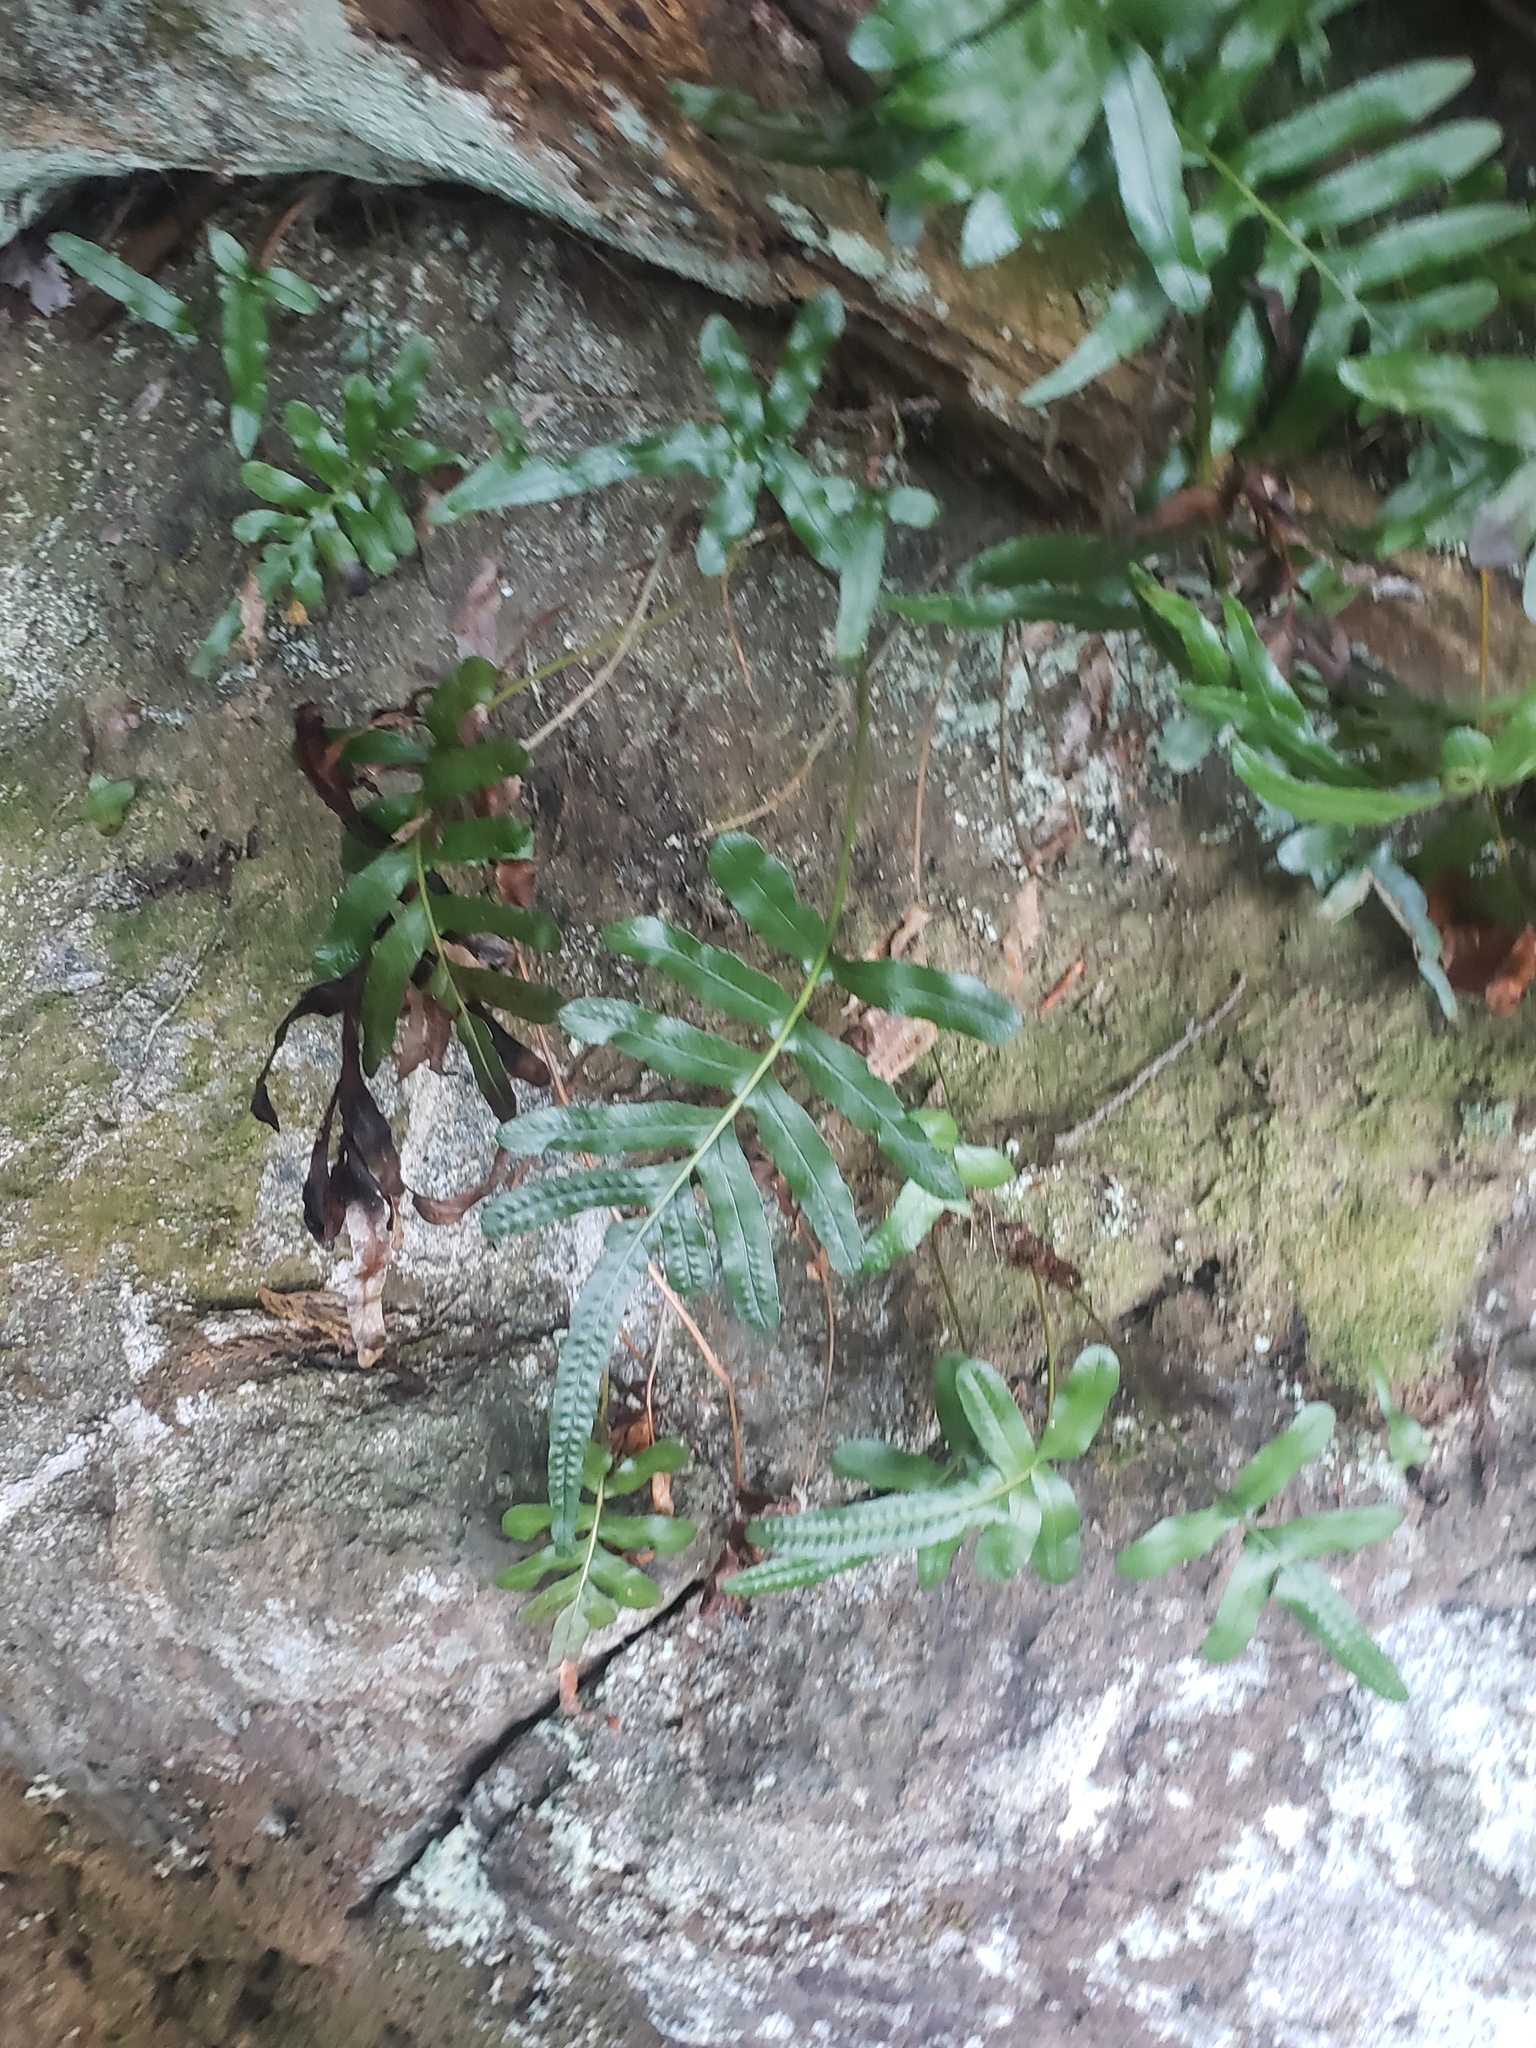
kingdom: Plantae
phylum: Tracheophyta
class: Polypodiopsida
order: Polypodiales
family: Polypodiaceae
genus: Polypodium
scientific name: Polypodium scouleri
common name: Scouler's polypody
